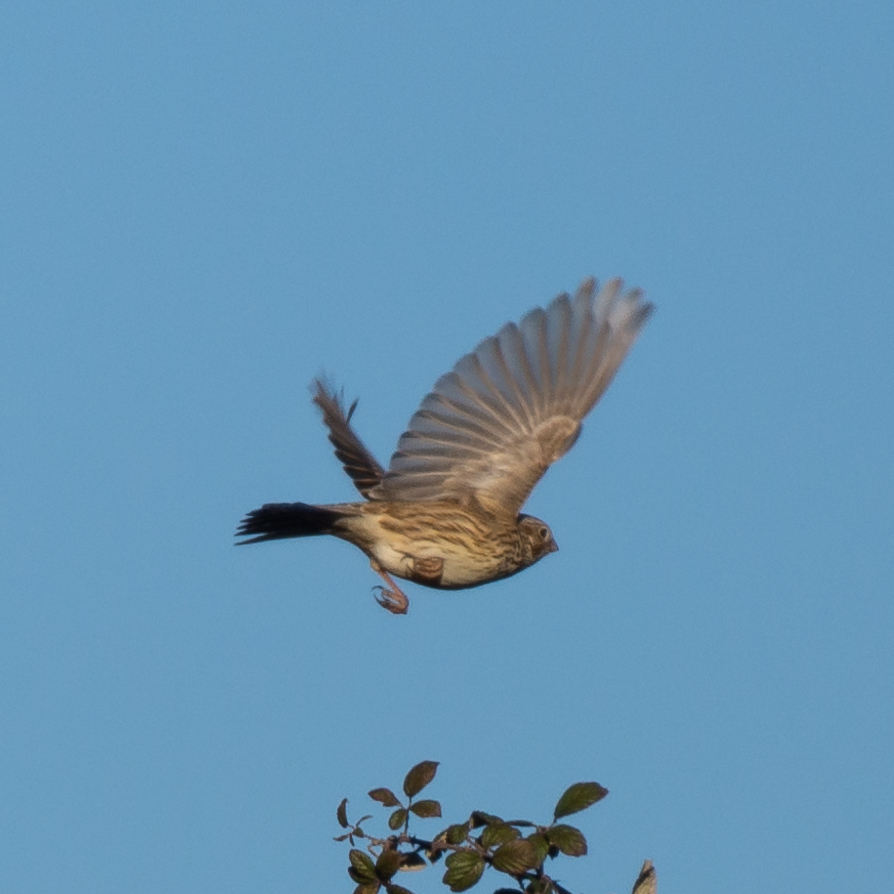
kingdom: Animalia
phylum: Chordata
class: Aves
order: Passeriformes
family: Emberizidae
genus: Emberiza
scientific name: Emberiza calandra
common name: Corn bunting
